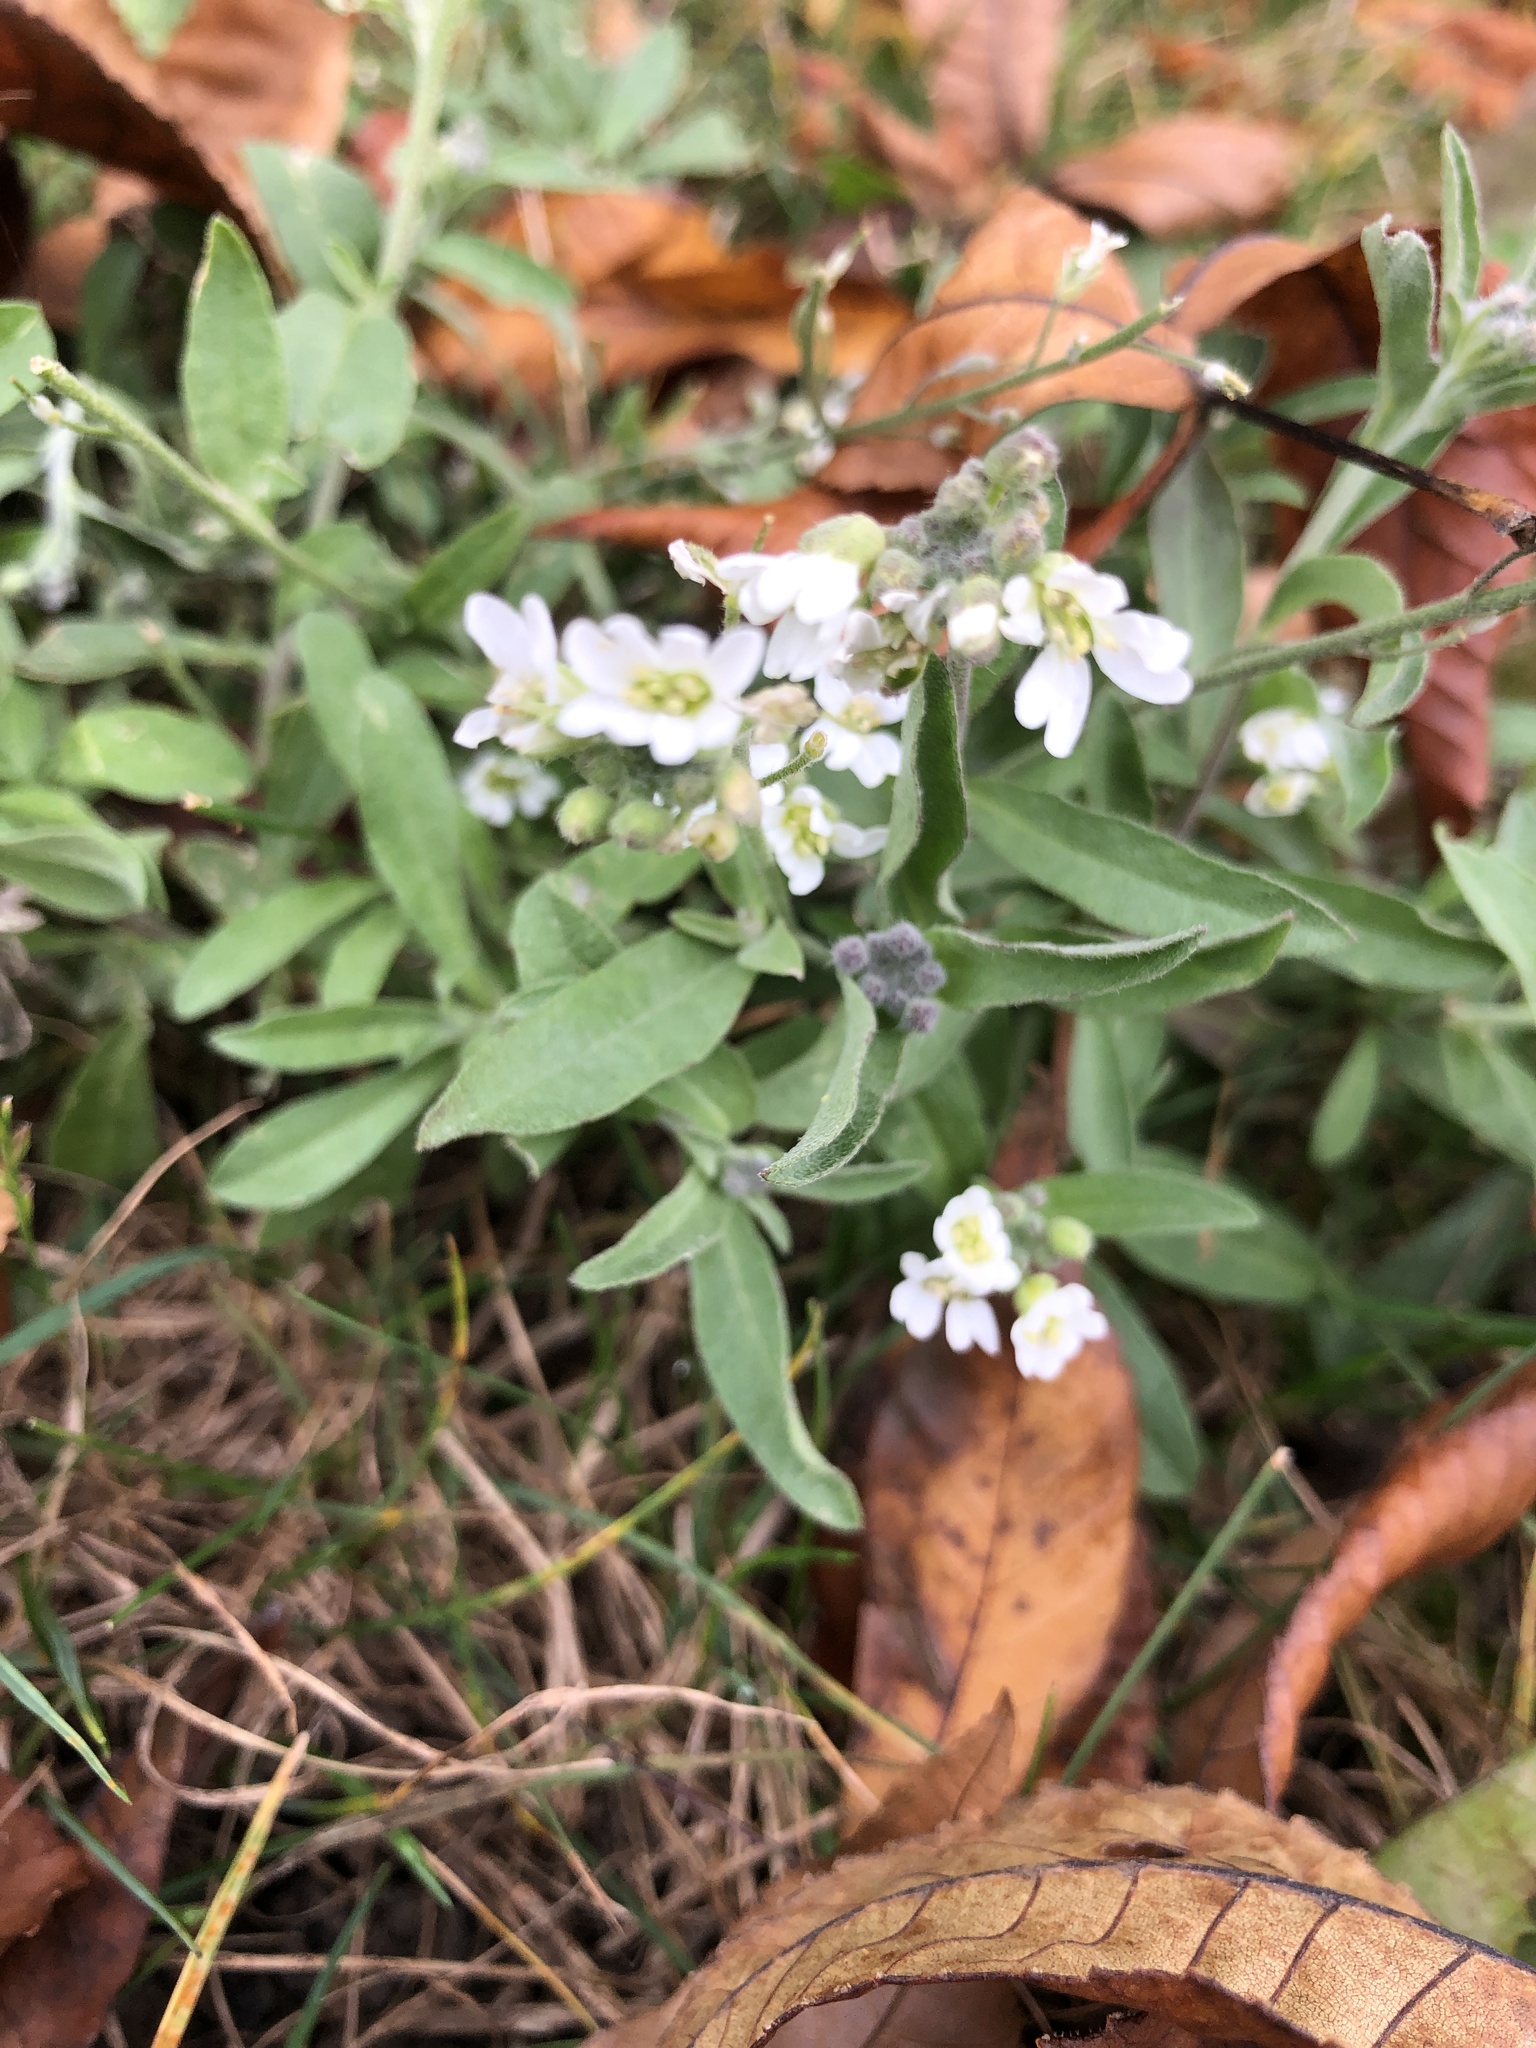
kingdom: Plantae
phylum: Tracheophyta
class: Magnoliopsida
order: Brassicales
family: Brassicaceae
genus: Berteroa
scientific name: Berteroa incana
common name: Hoary alison
